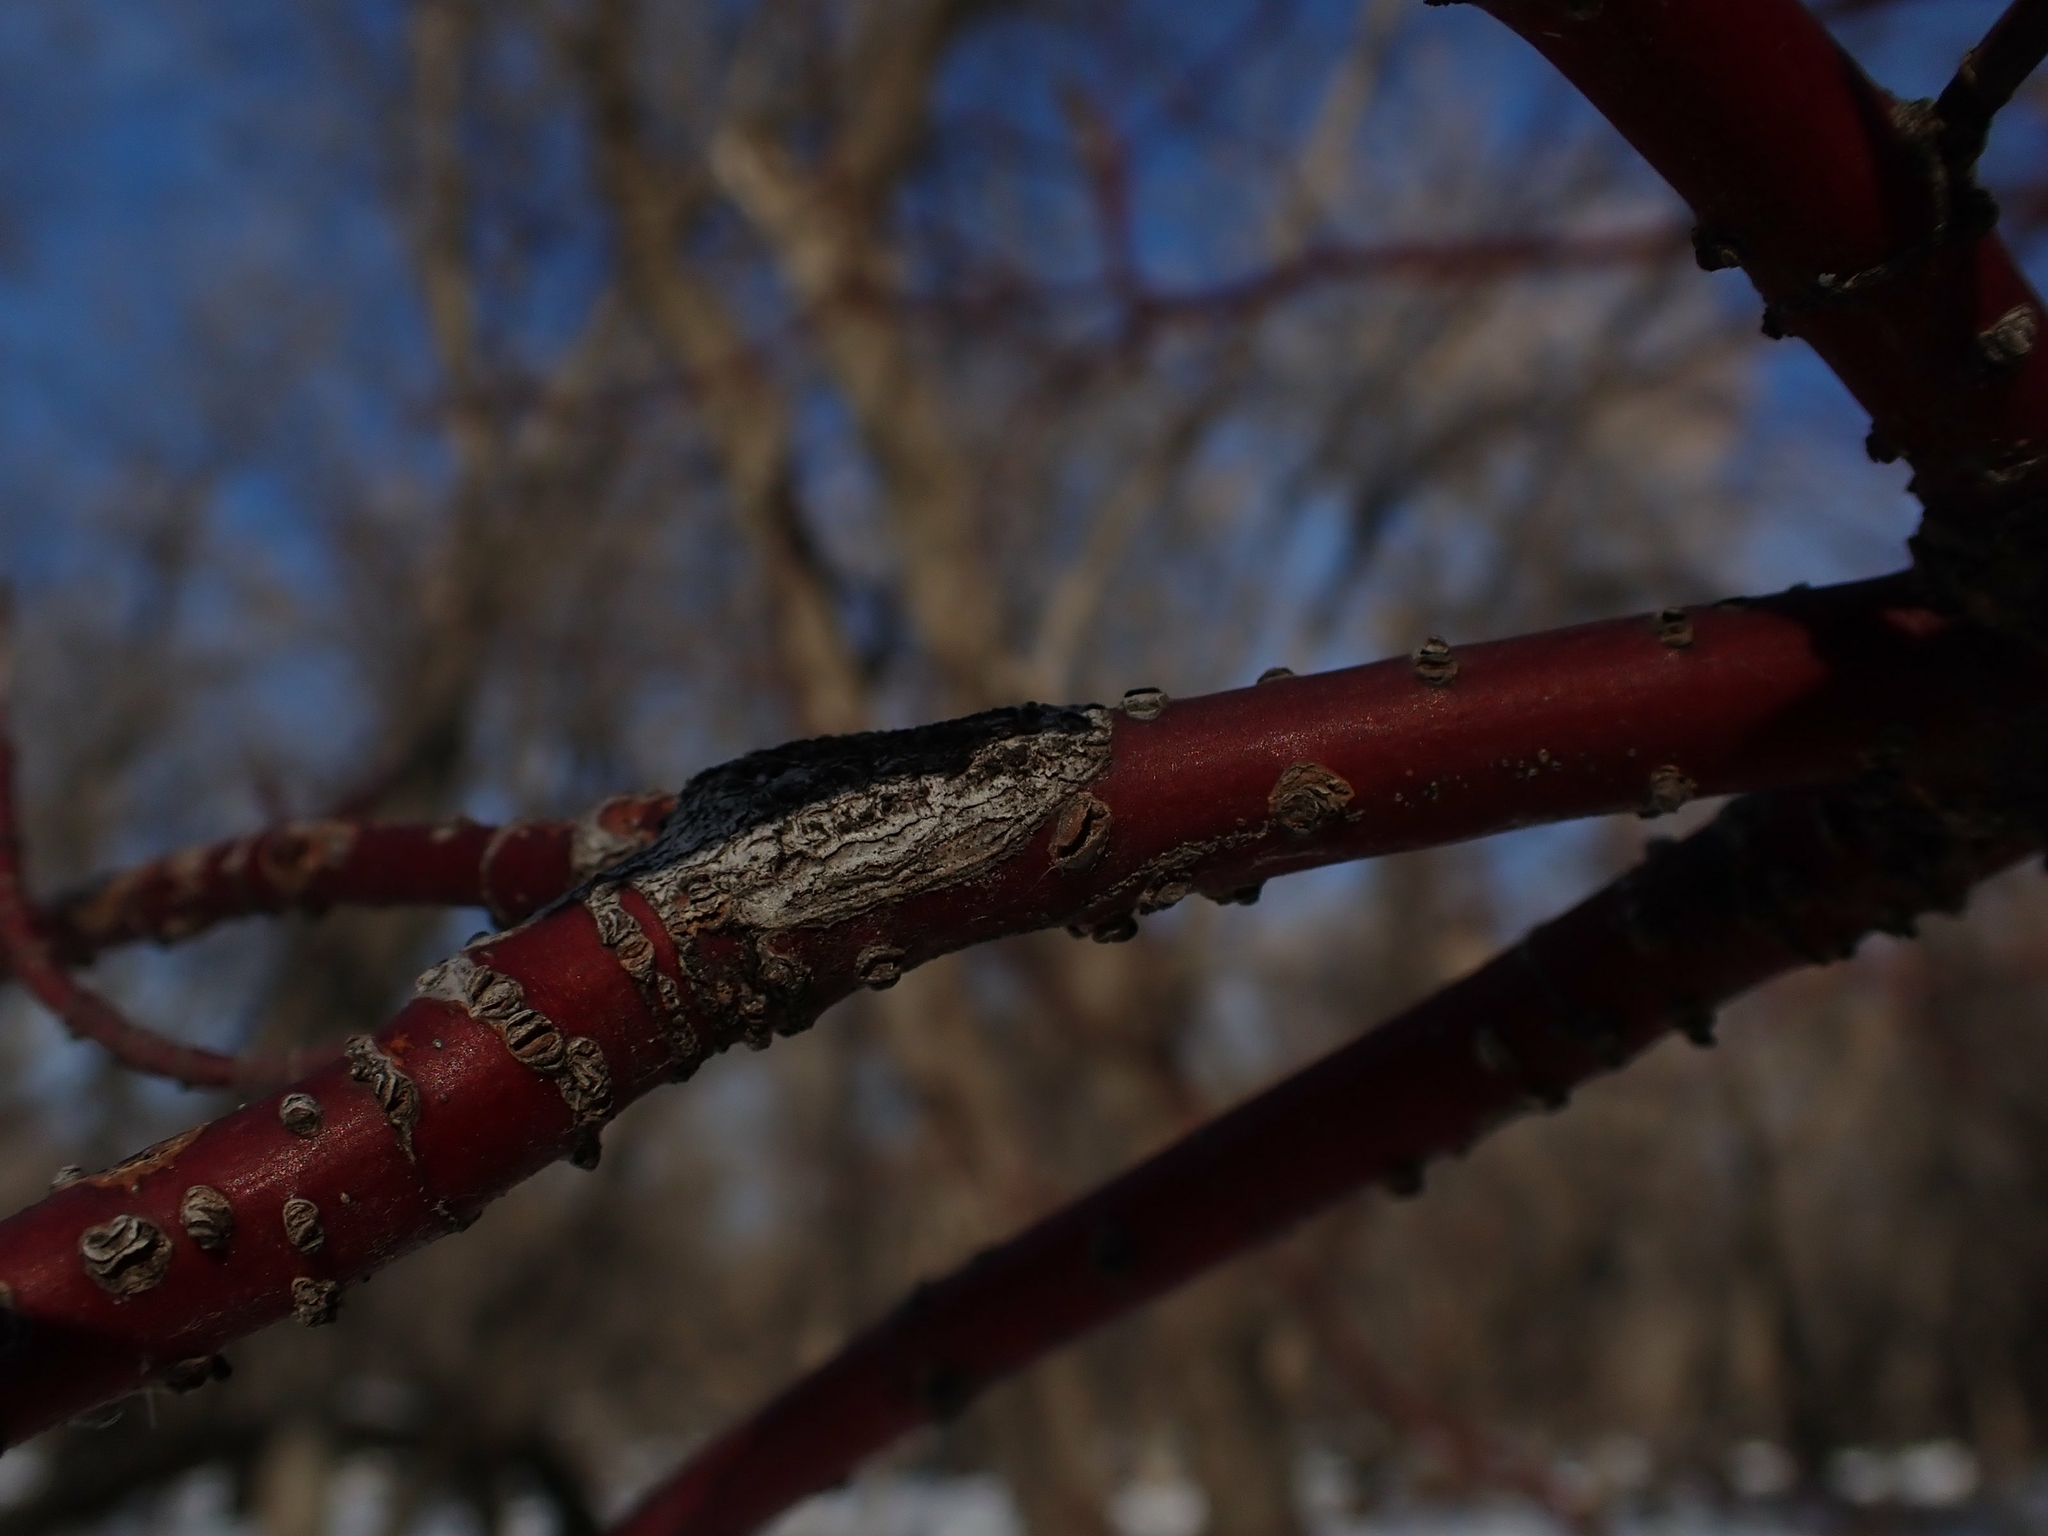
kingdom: Plantae
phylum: Tracheophyta
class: Magnoliopsida
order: Cornales
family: Cornaceae
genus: Cornus
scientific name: Cornus sericea
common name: Red-osier dogwood
